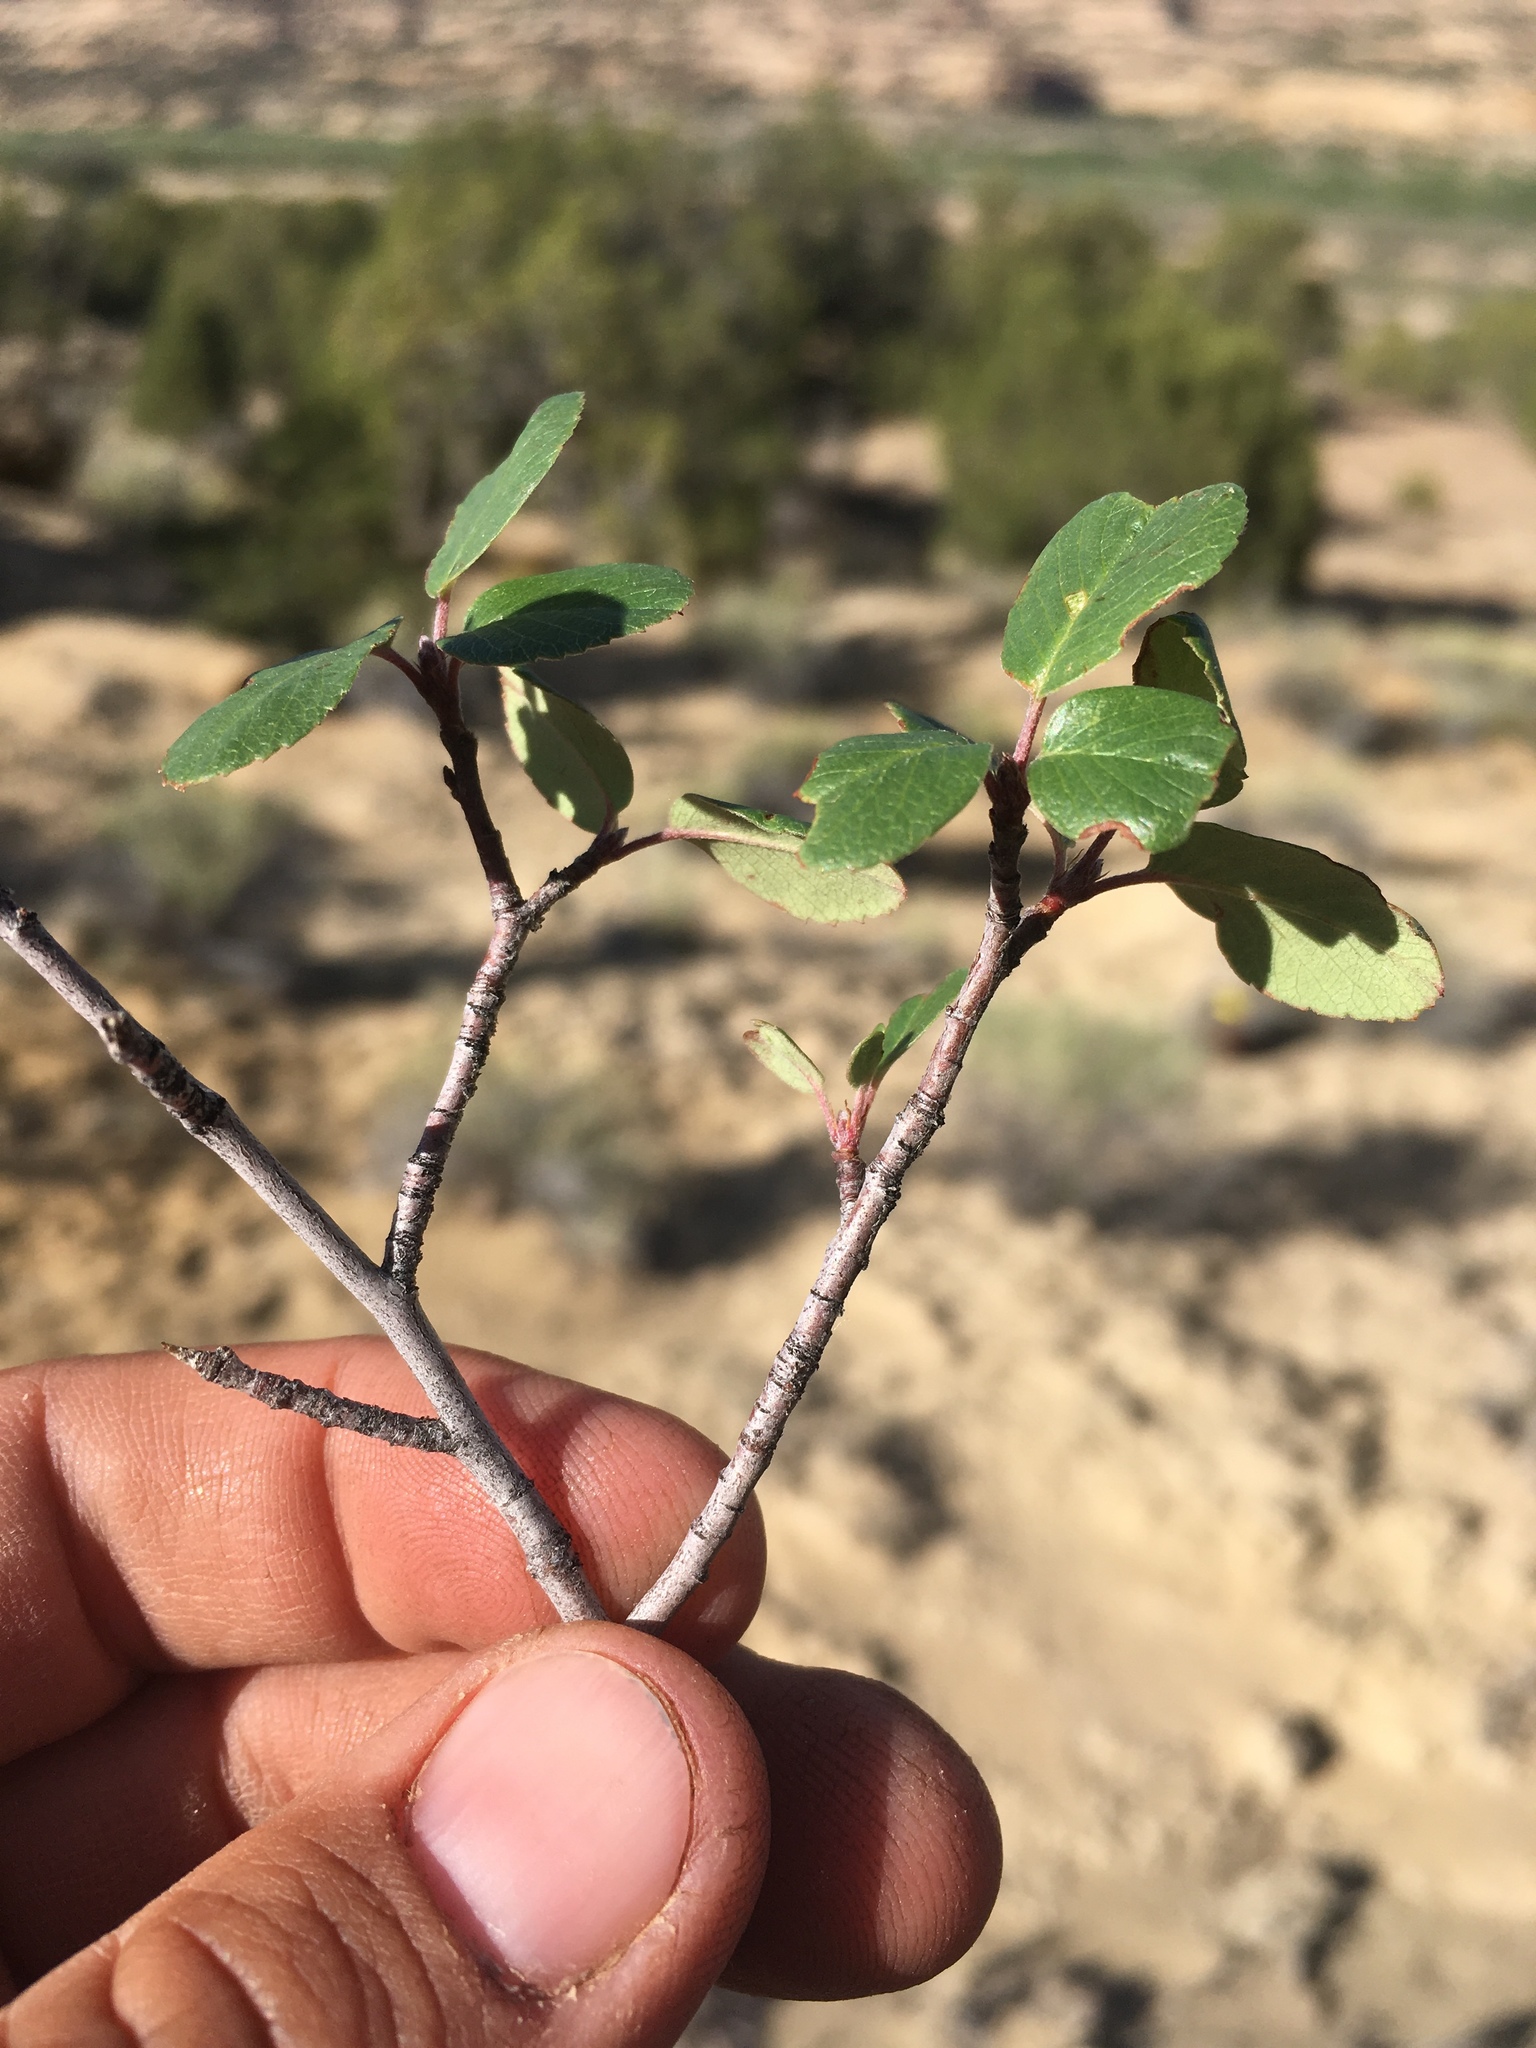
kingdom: Plantae
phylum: Tracheophyta
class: Magnoliopsida
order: Rosales
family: Rosaceae
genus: Amelanchier
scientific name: Amelanchier utahensis
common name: Utah serviceberry
